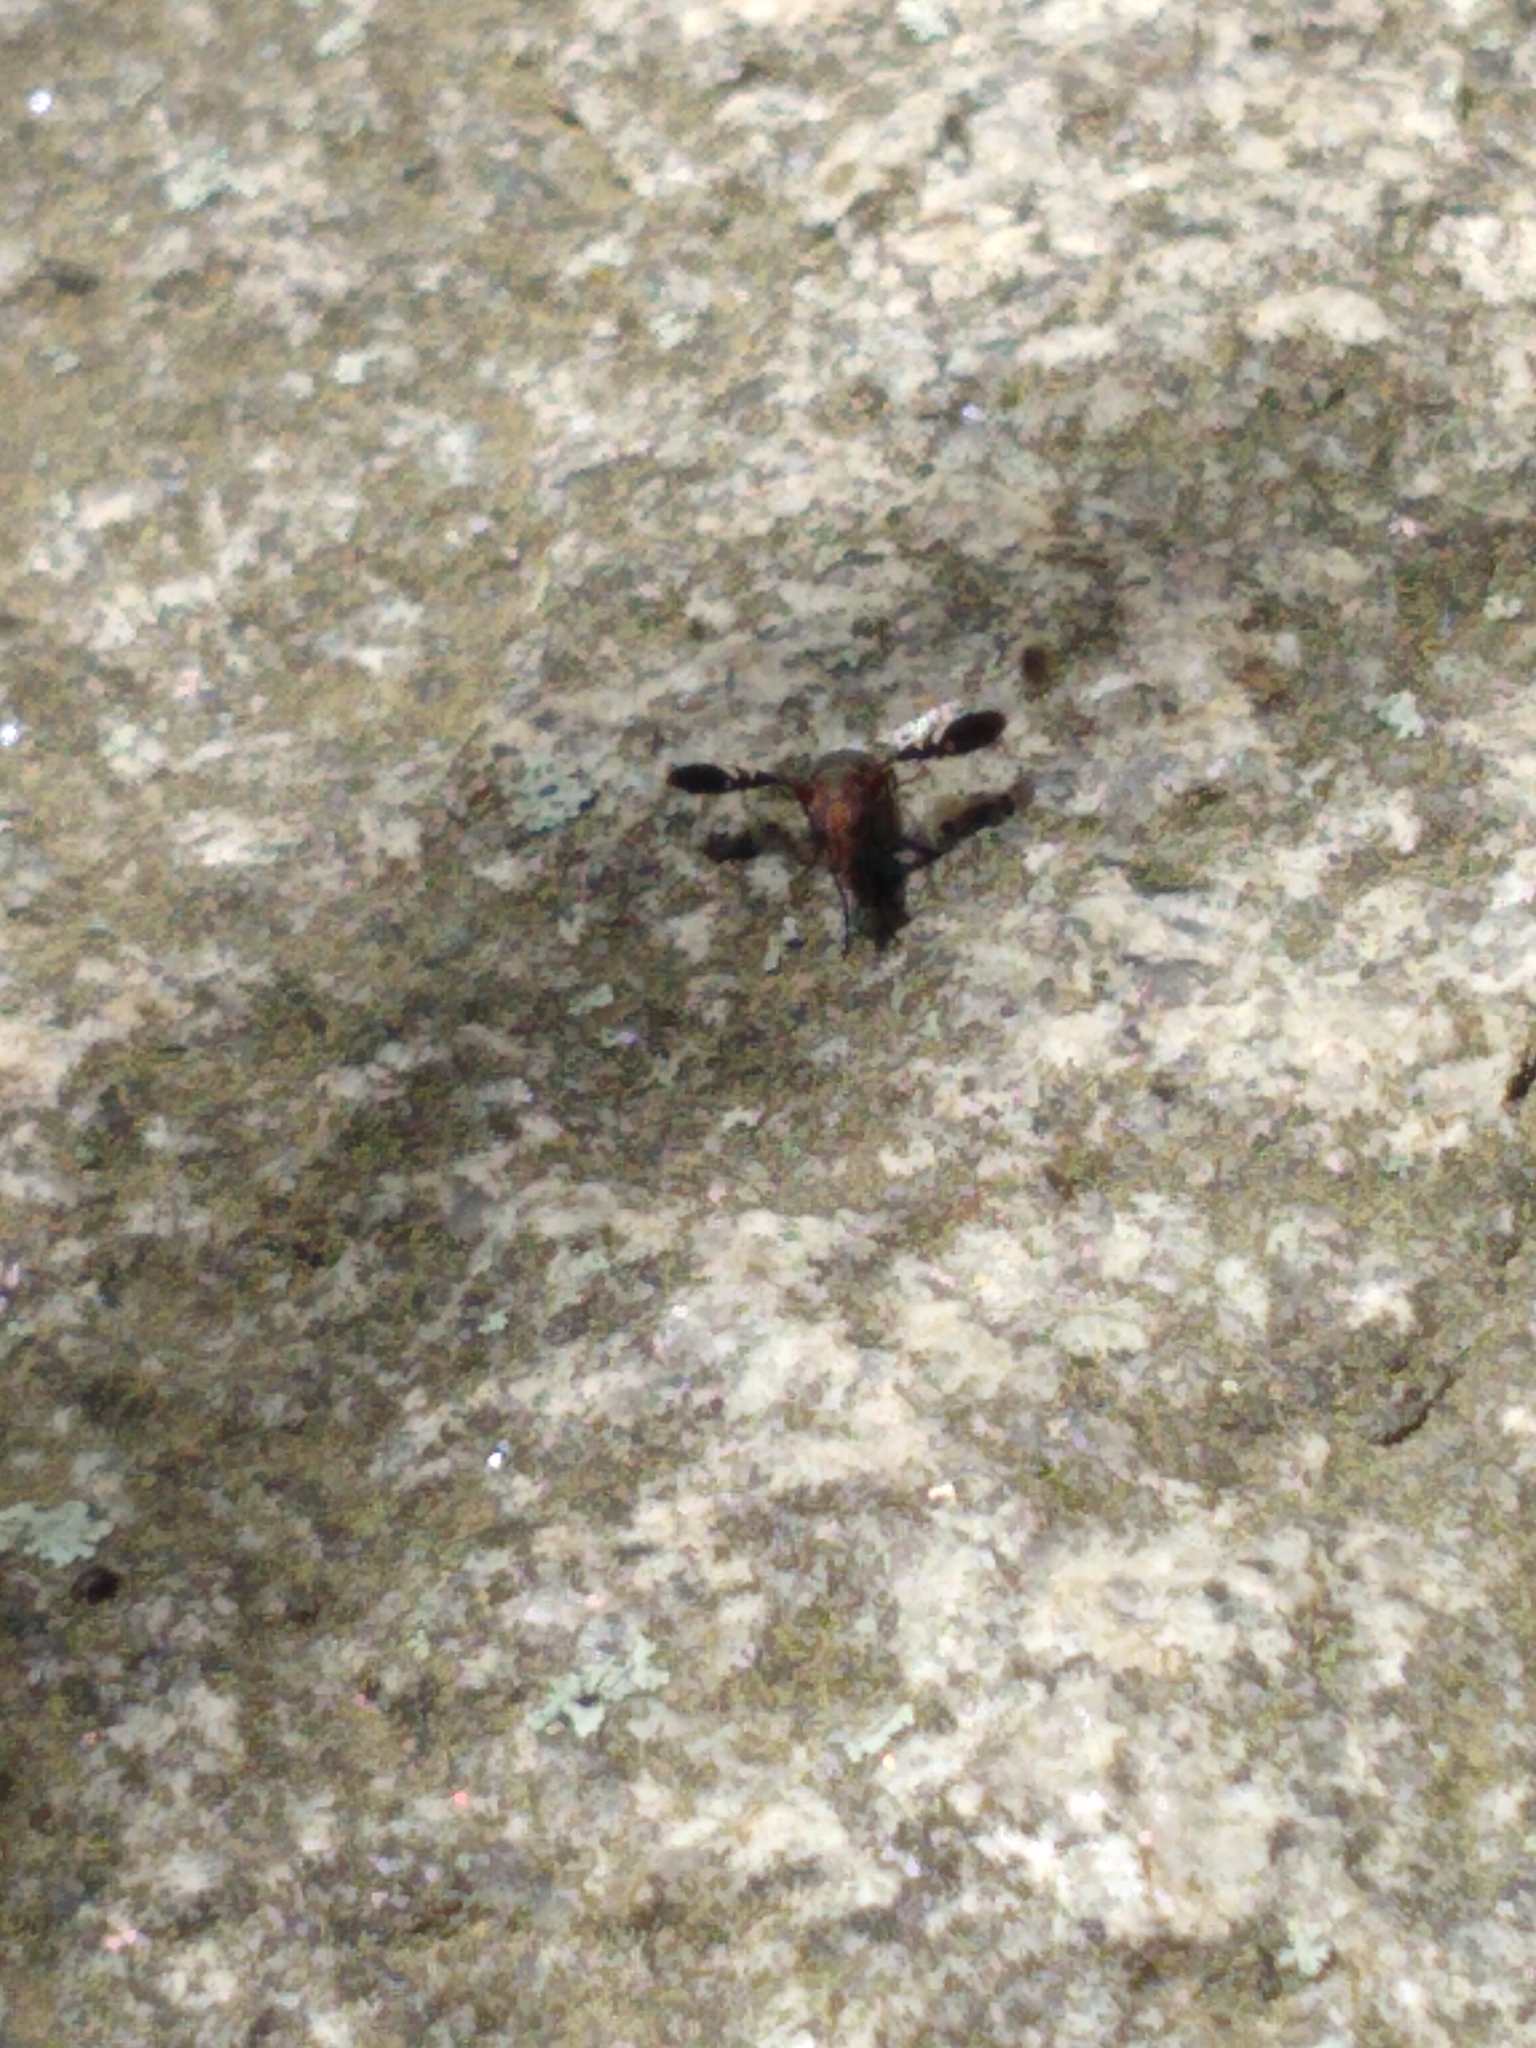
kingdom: Animalia
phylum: Arthropoda
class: Insecta
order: Diptera
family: Ulidiidae
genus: Delphinia
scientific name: Delphinia picta
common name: Common picture-winged fly
